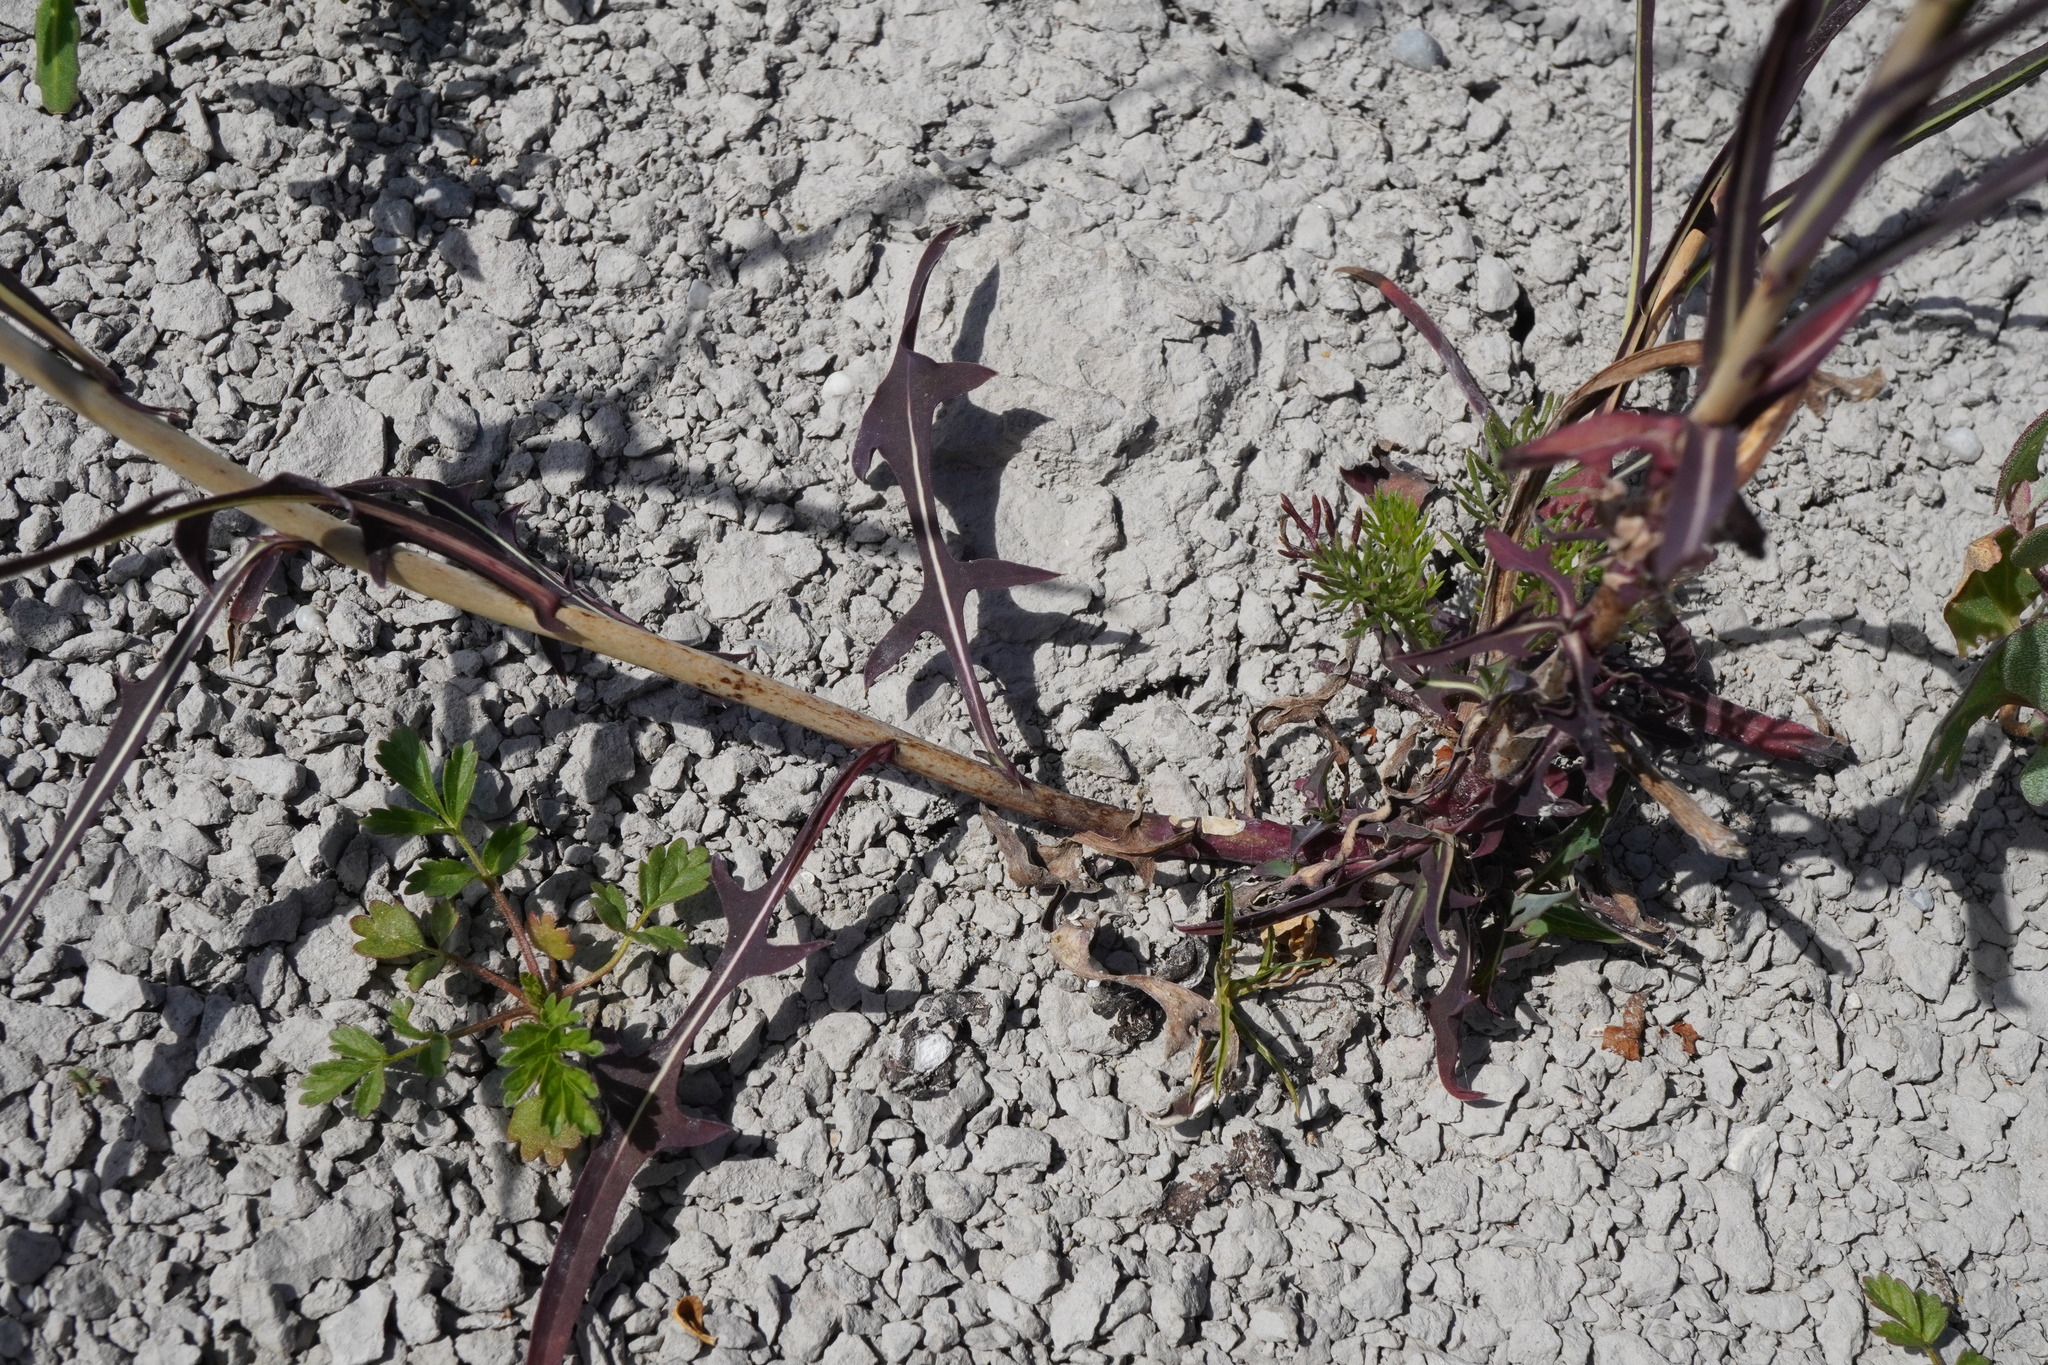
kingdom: Plantae
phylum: Tracheophyta
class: Magnoliopsida
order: Asterales
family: Asteraceae
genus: Lactuca
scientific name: Lactuca saligna
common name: Wild lettuce
